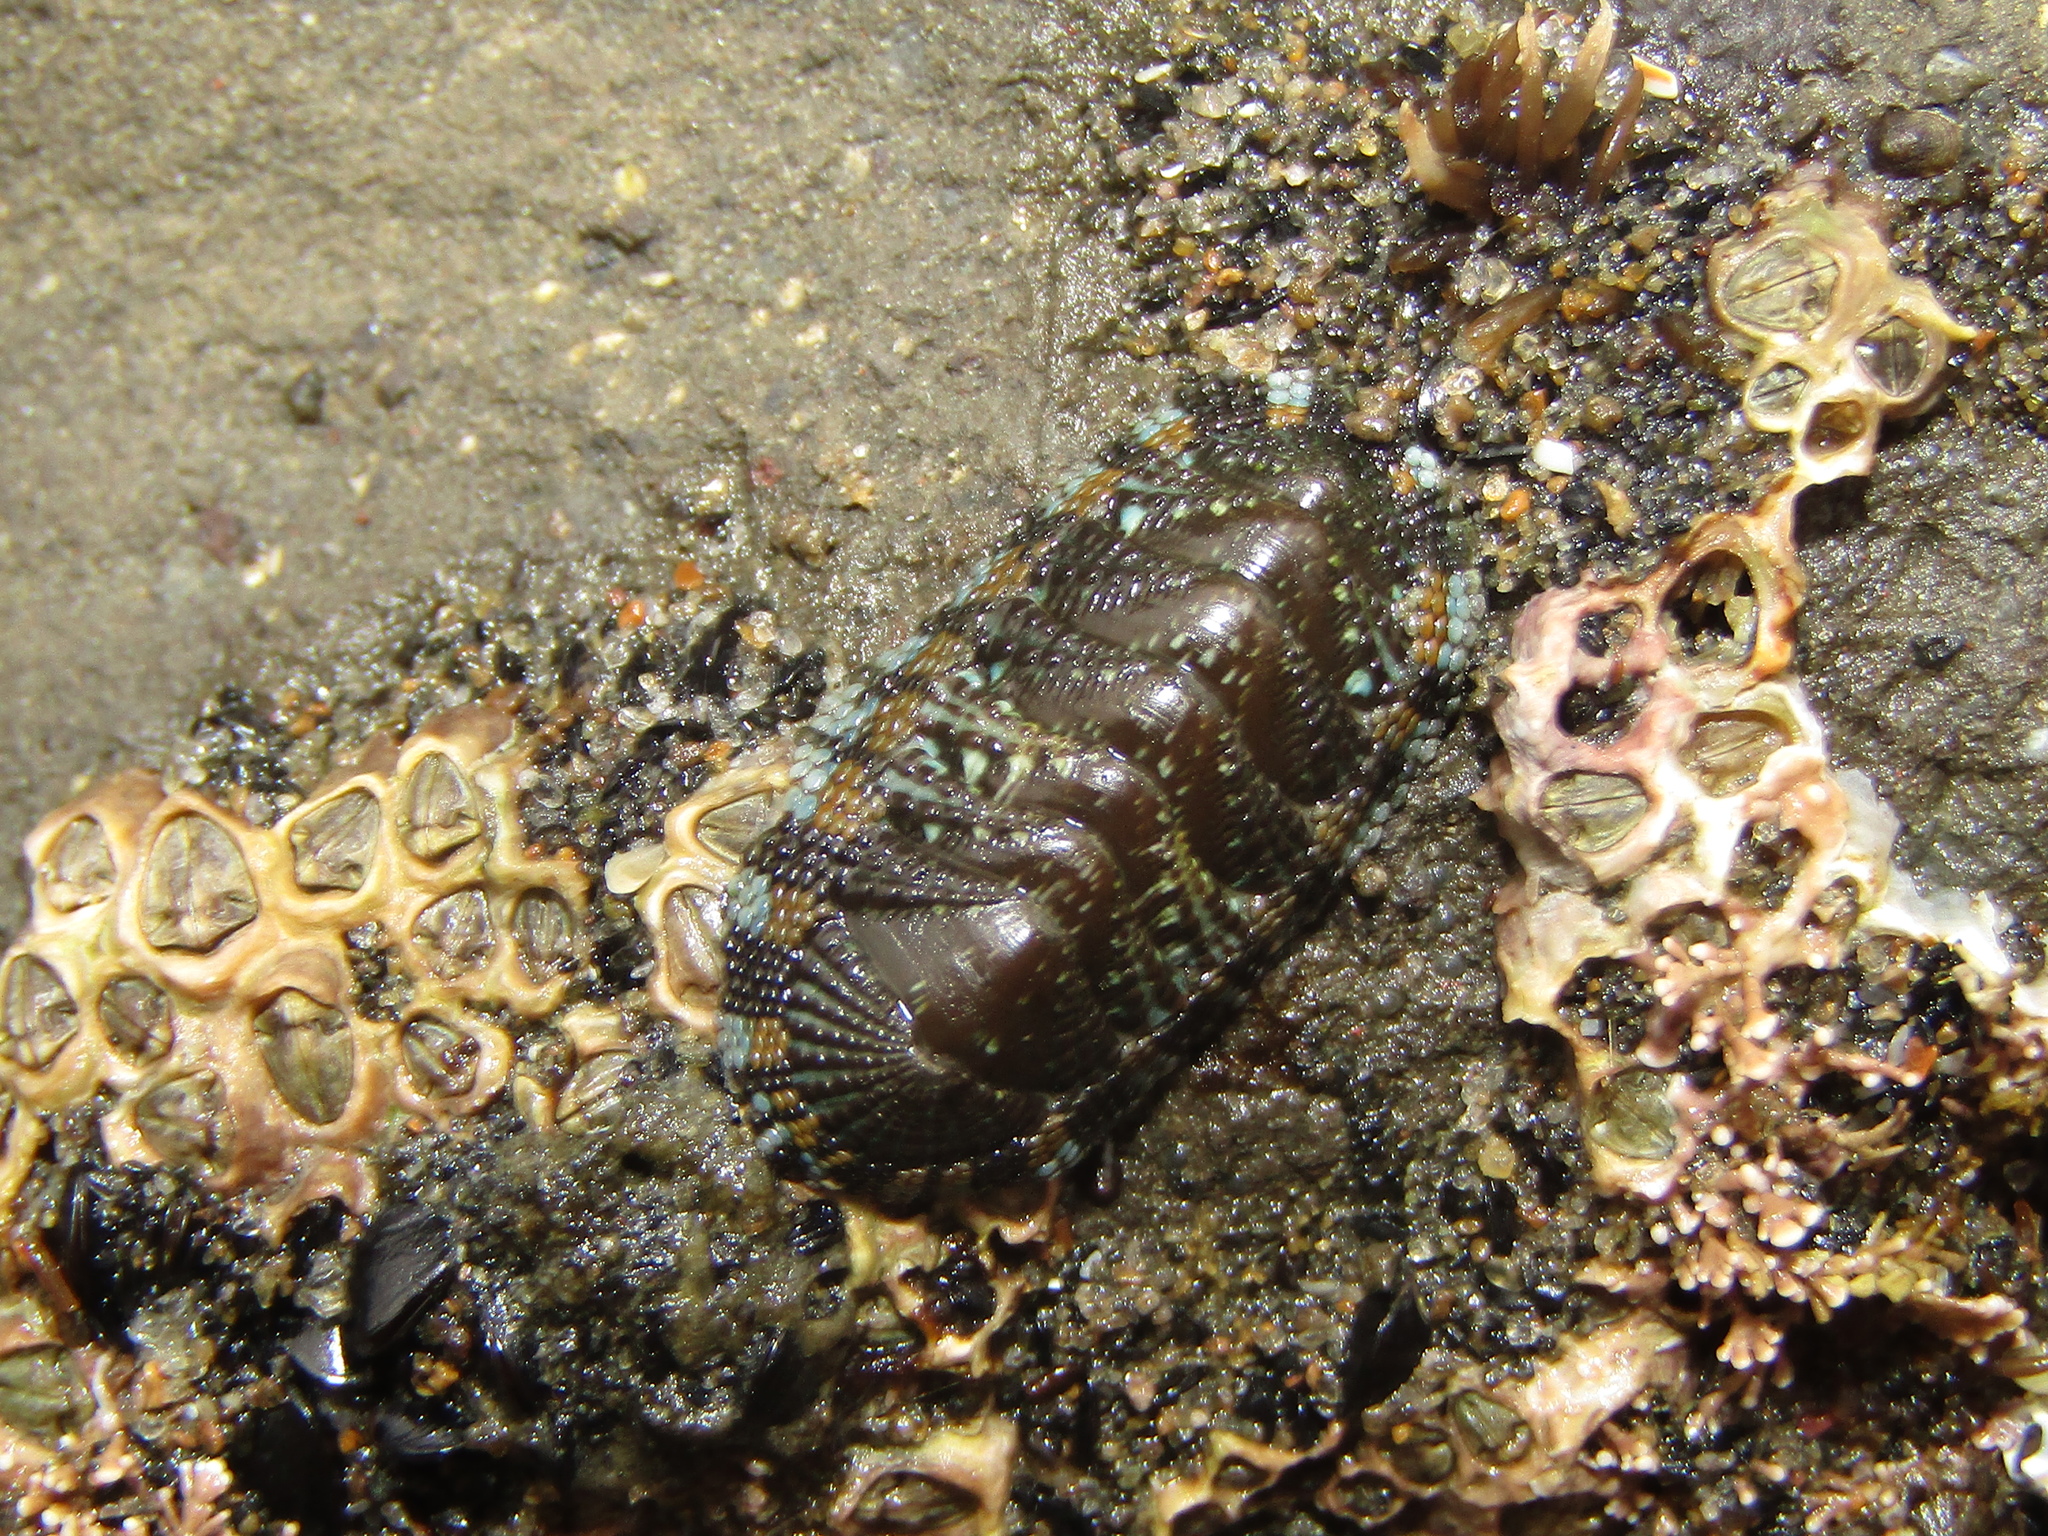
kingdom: Animalia
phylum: Mollusca
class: Polyplacophora
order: Chitonida
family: Chitonidae
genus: Sypharochiton
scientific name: Sypharochiton sinclairi
